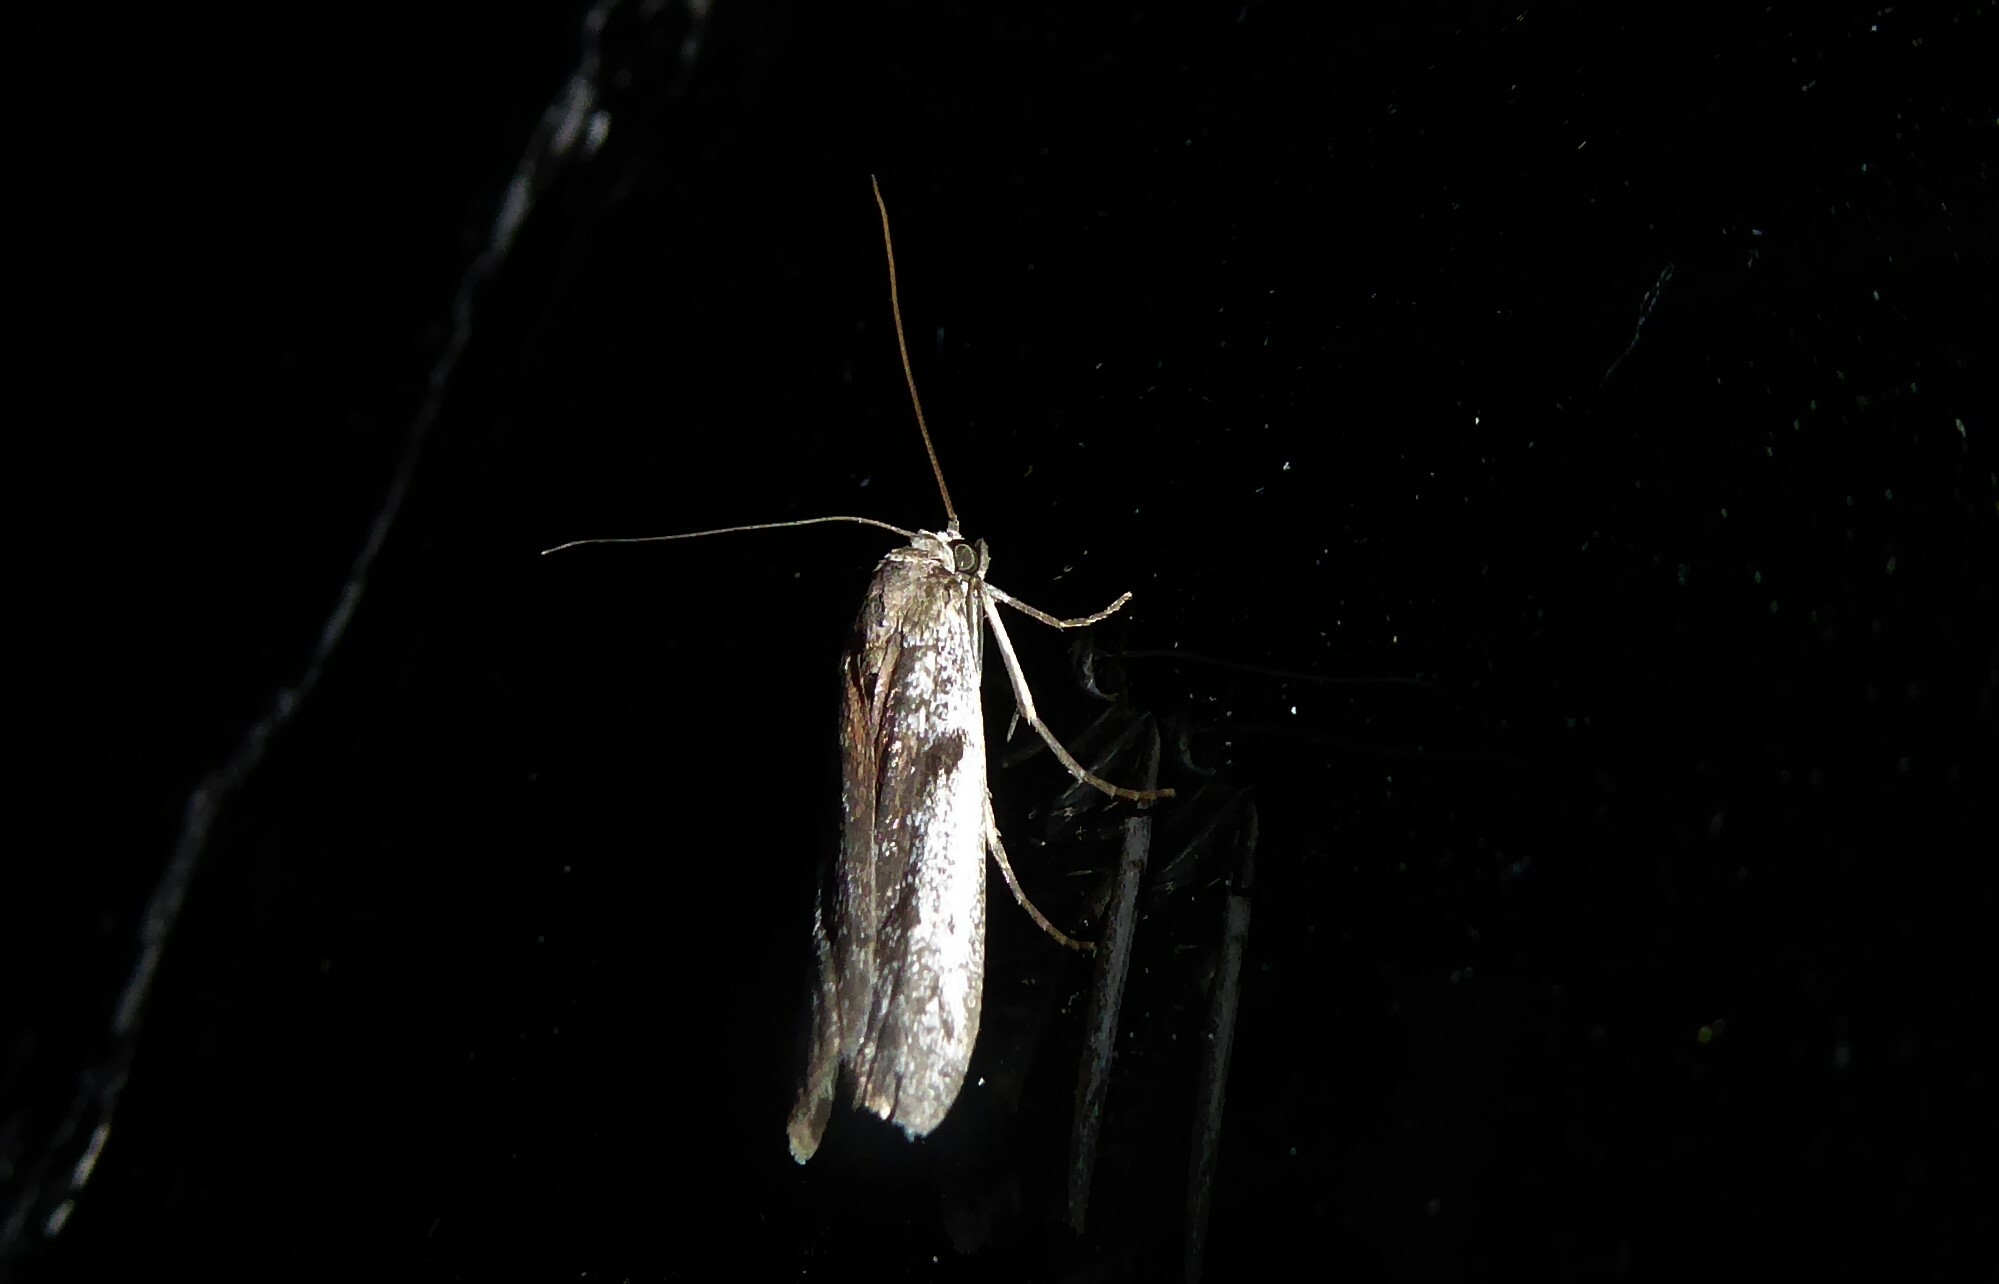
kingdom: Animalia
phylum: Arthropoda
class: Insecta
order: Lepidoptera
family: Pyralidae
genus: Patagoniodes
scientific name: Patagoniodes farinaria
